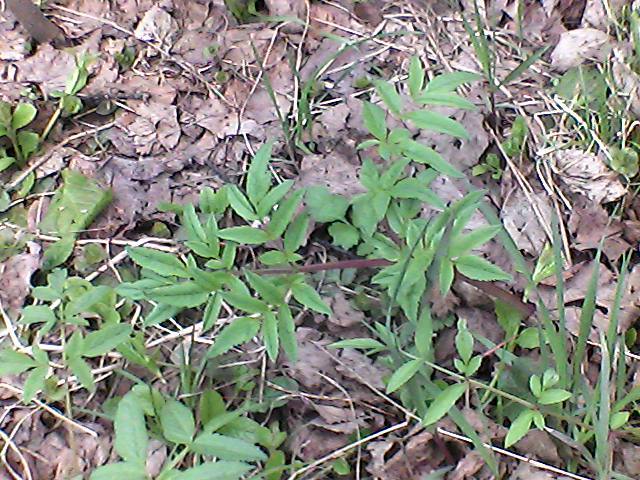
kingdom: Plantae
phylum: Tracheophyta
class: Magnoliopsida
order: Apiales
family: Apiaceae
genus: Angelica
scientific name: Angelica sylvestris
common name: Wild angelica
